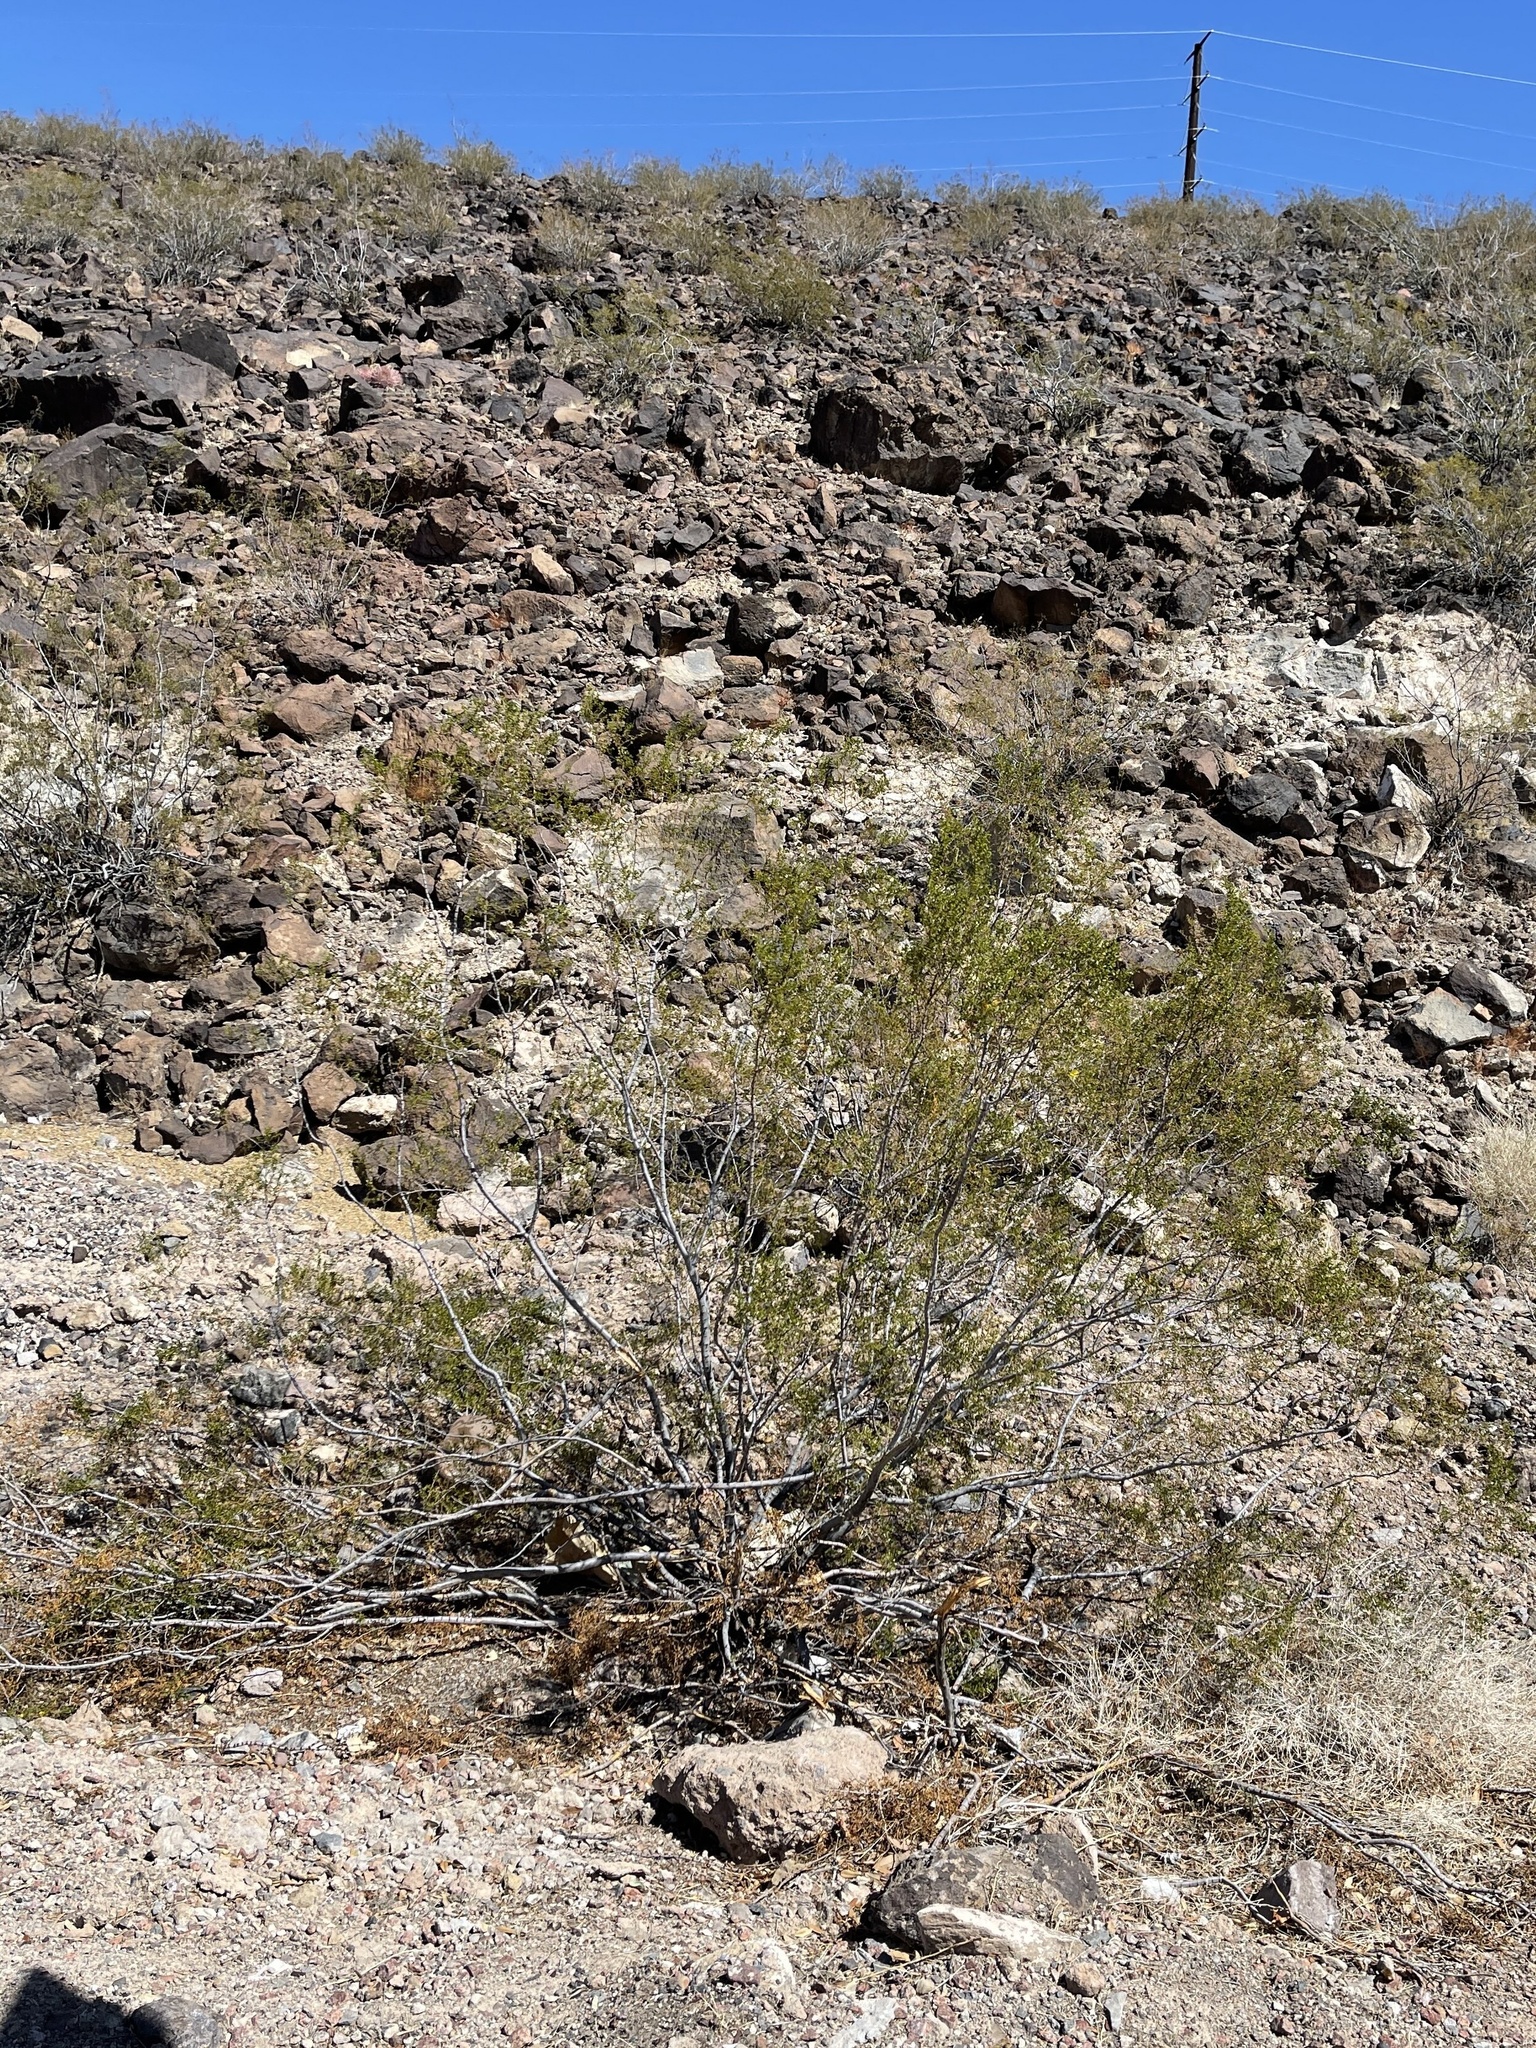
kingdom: Plantae
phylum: Tracheophyta
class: Magnoliopsida
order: Zygophyllales
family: Zygophyllaceae
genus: Larrea
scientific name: Larrea tridentata
